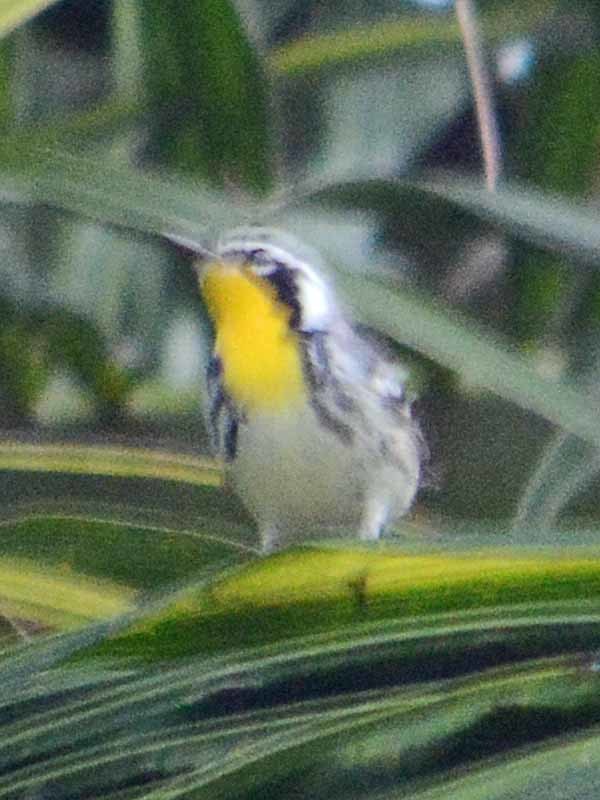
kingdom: Animalia
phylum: Chordata
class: Aves
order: Passeriformes
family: Parulidae
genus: Setophaga
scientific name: Setophaga dominica
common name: Yellow-throated warbler
